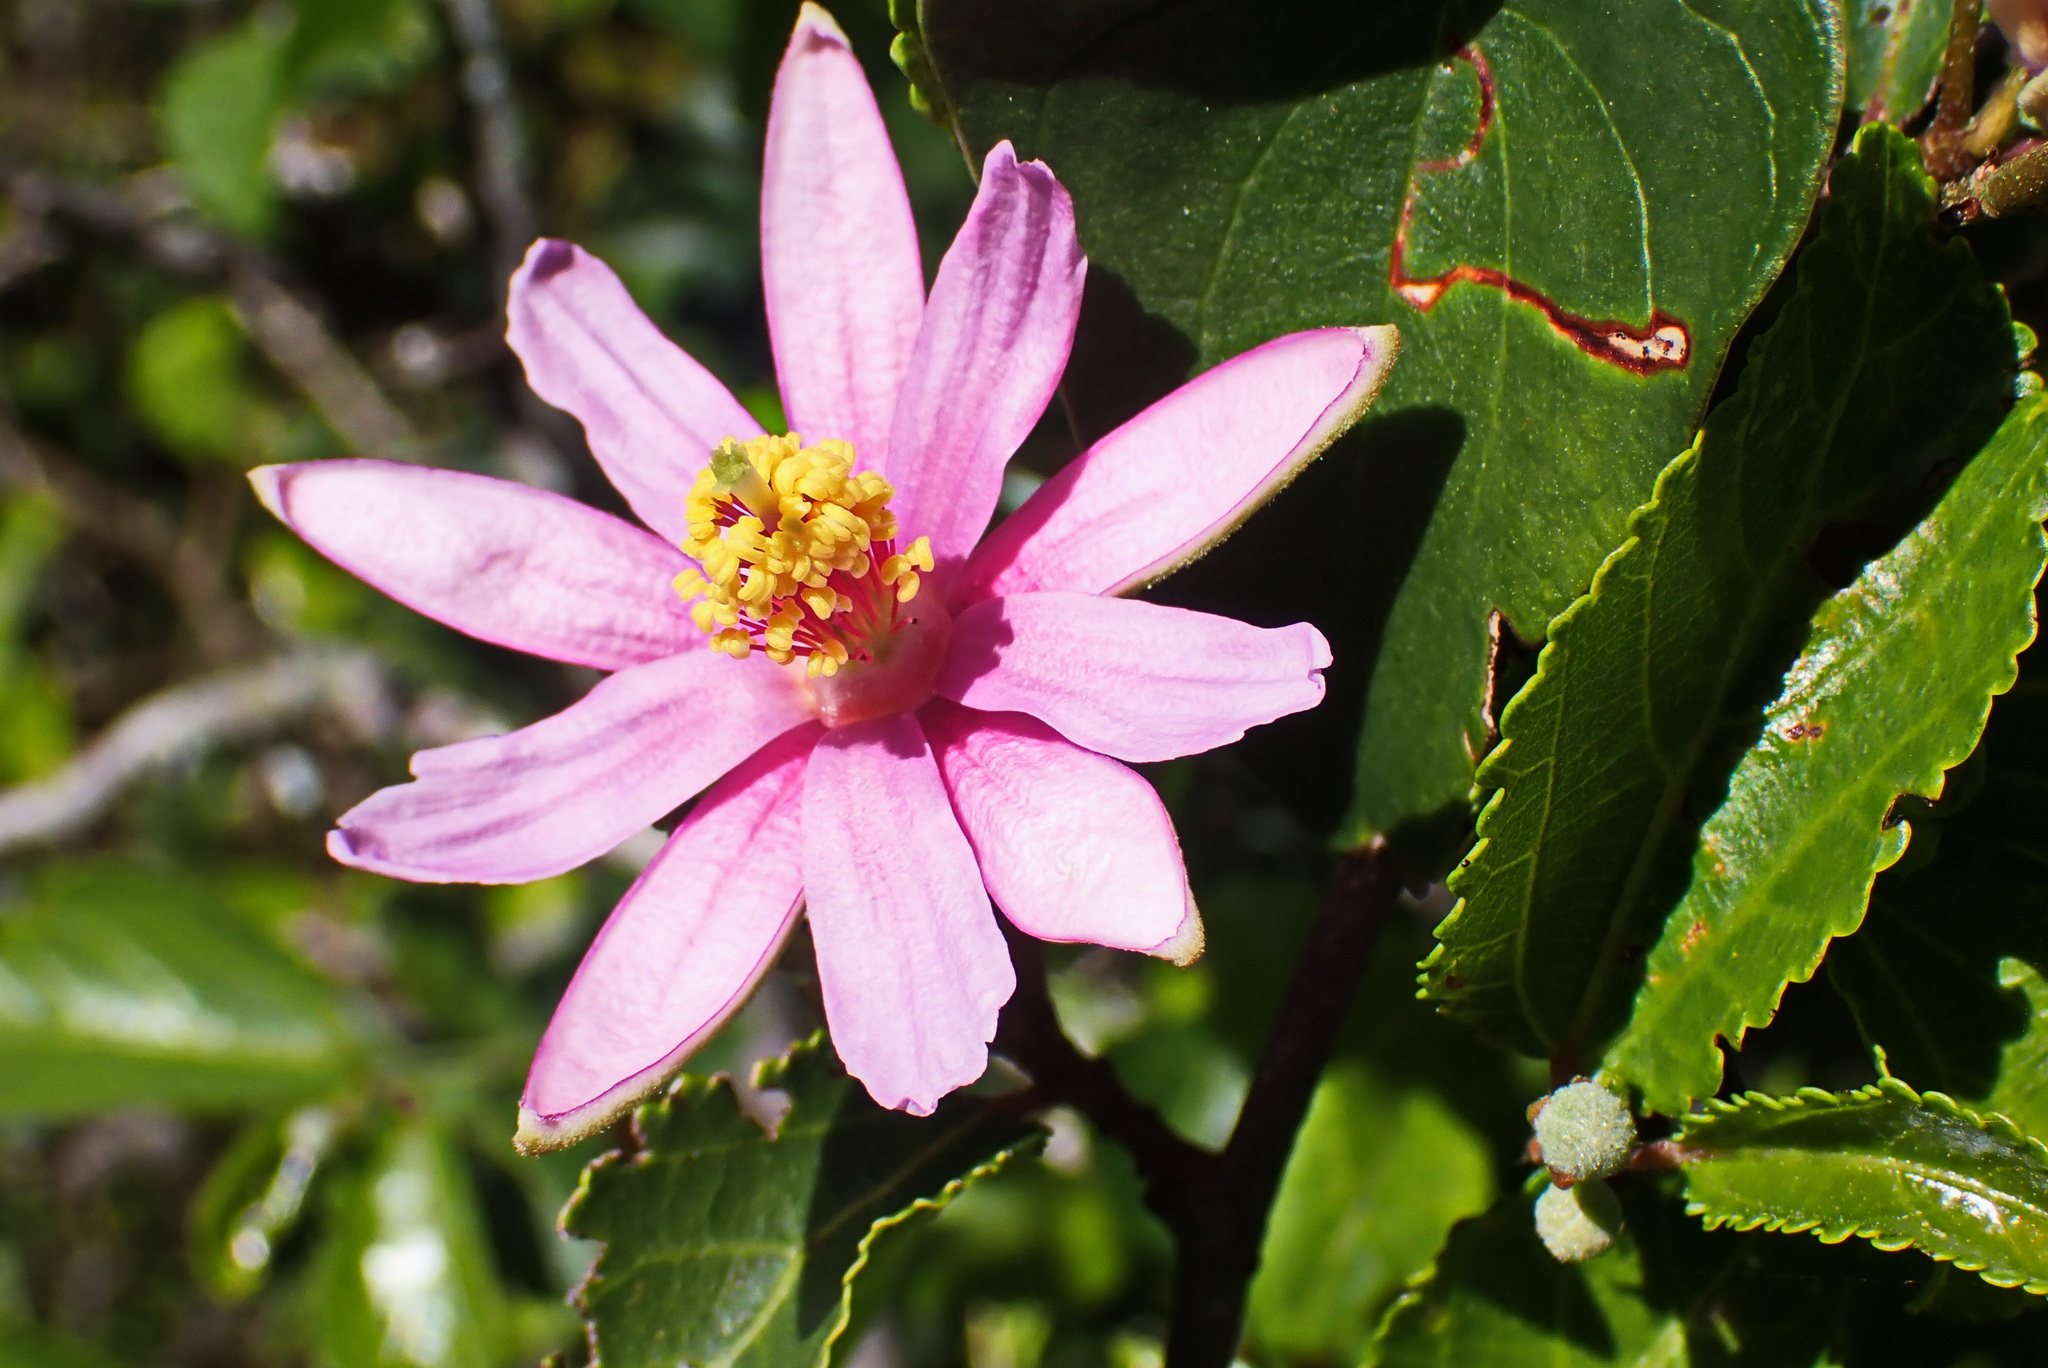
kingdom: Plantae
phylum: Tracheophyta
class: Magnoliopsida
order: Malvales
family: Malvaceae
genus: Grewia
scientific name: Grewia occidentalis
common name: Crossberry
